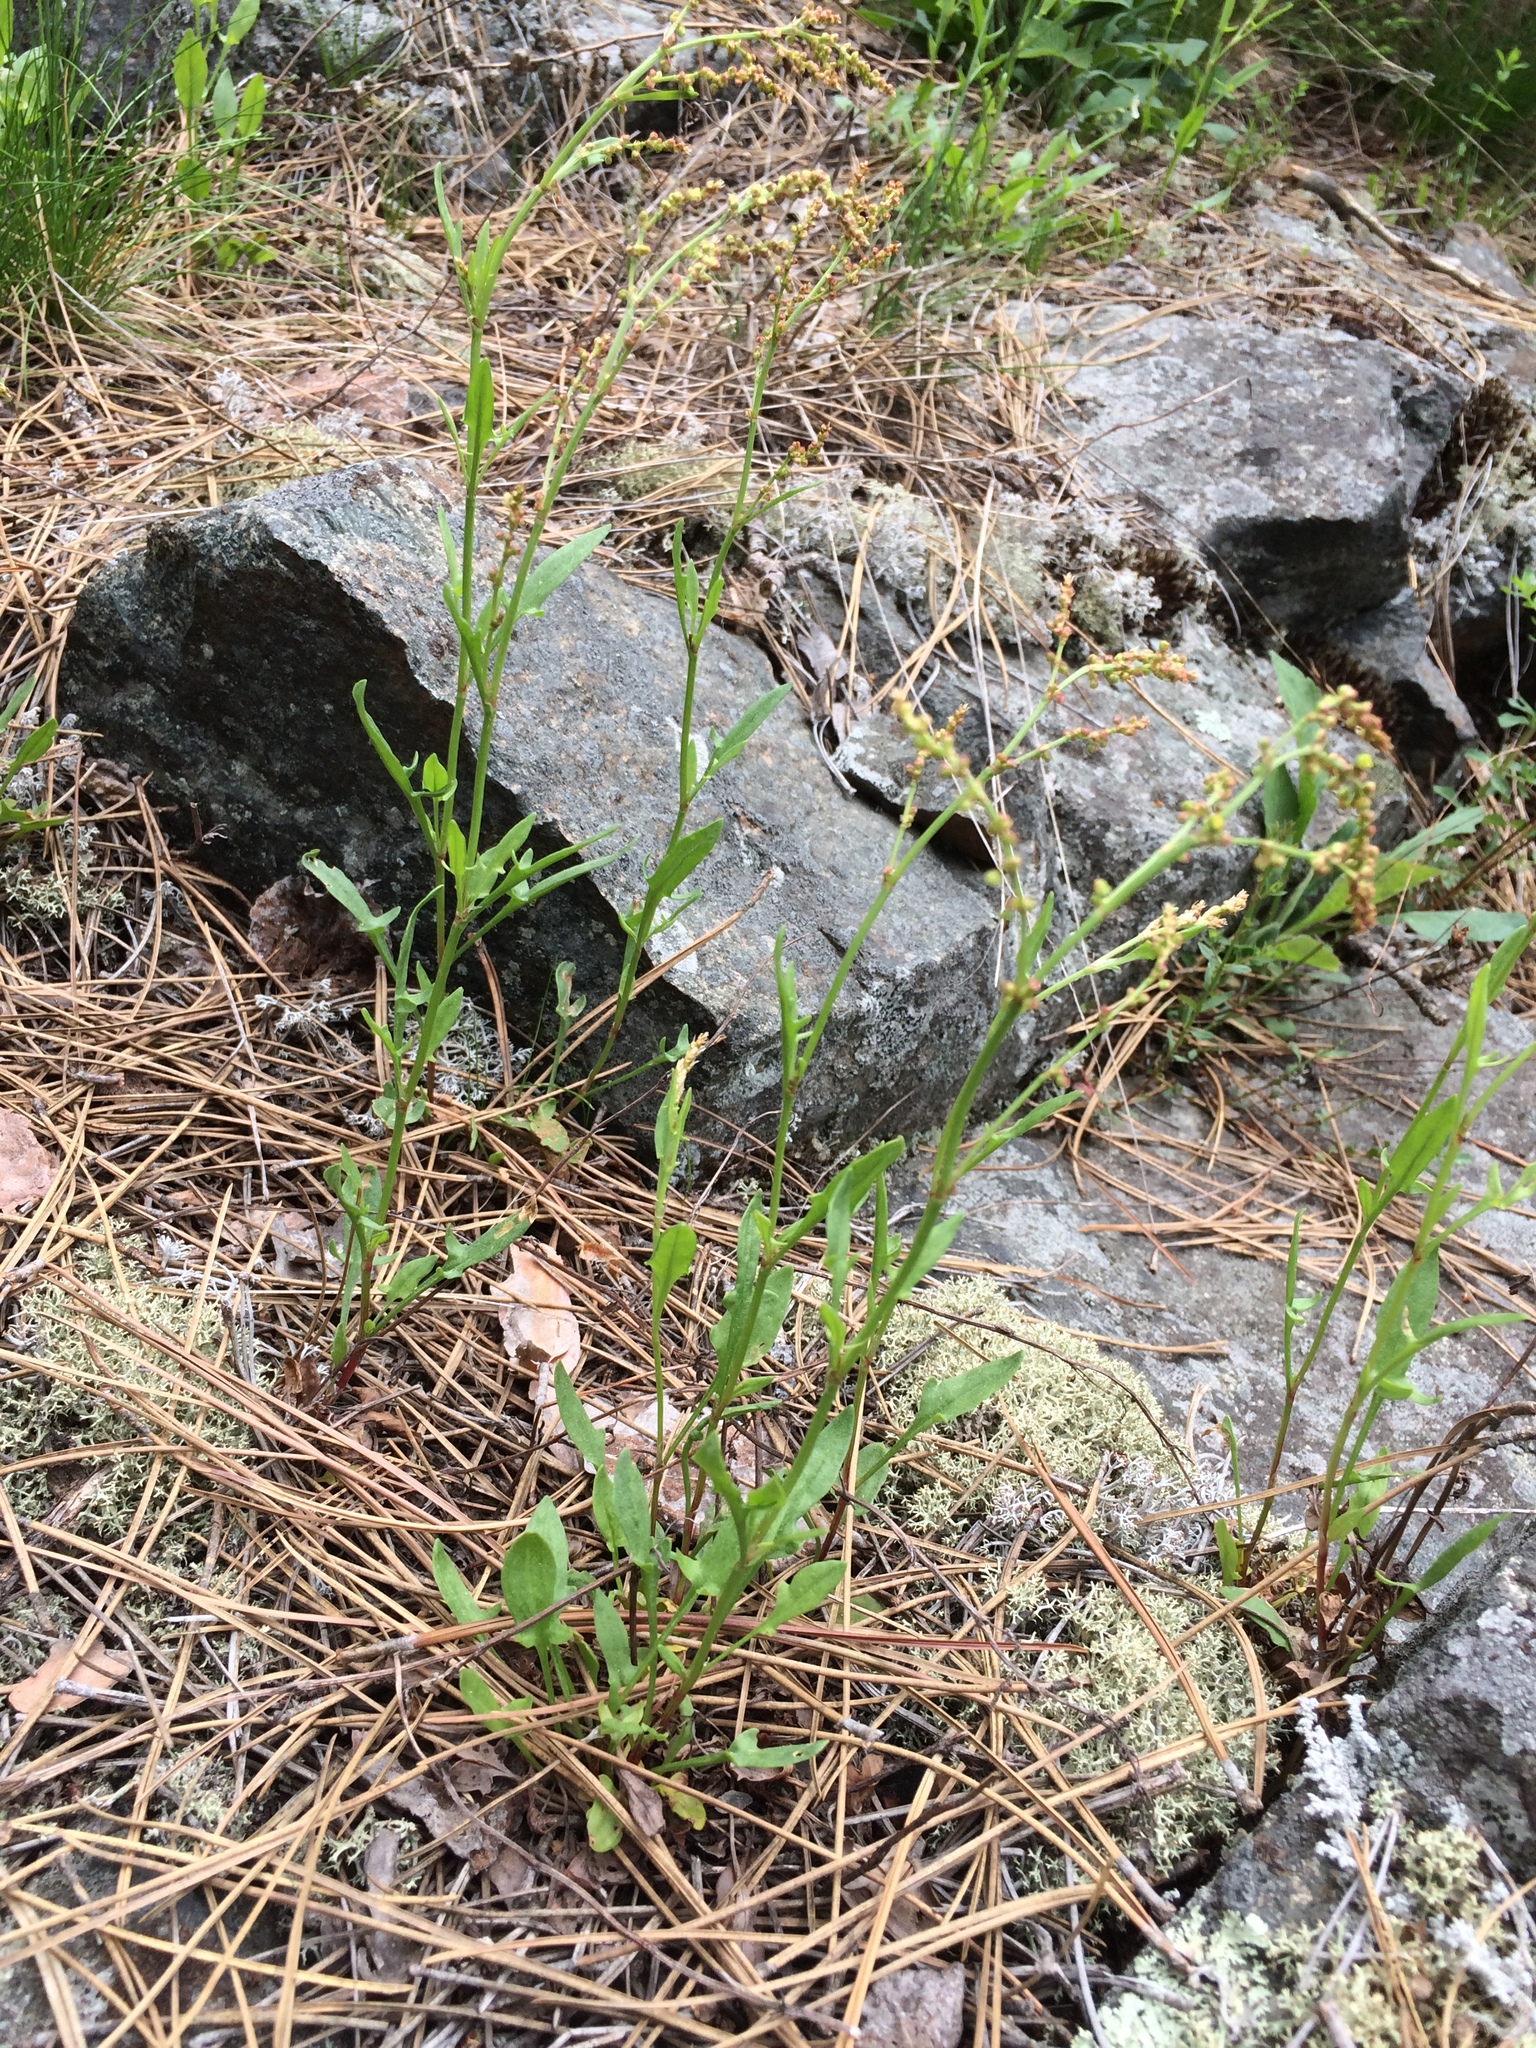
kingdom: Plantae
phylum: Tracheophyta
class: Magnoliopsida
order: Caryophyllales
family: Polygonaceae
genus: Rumex
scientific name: Rumex acetosella
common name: Common sheep sorrel
